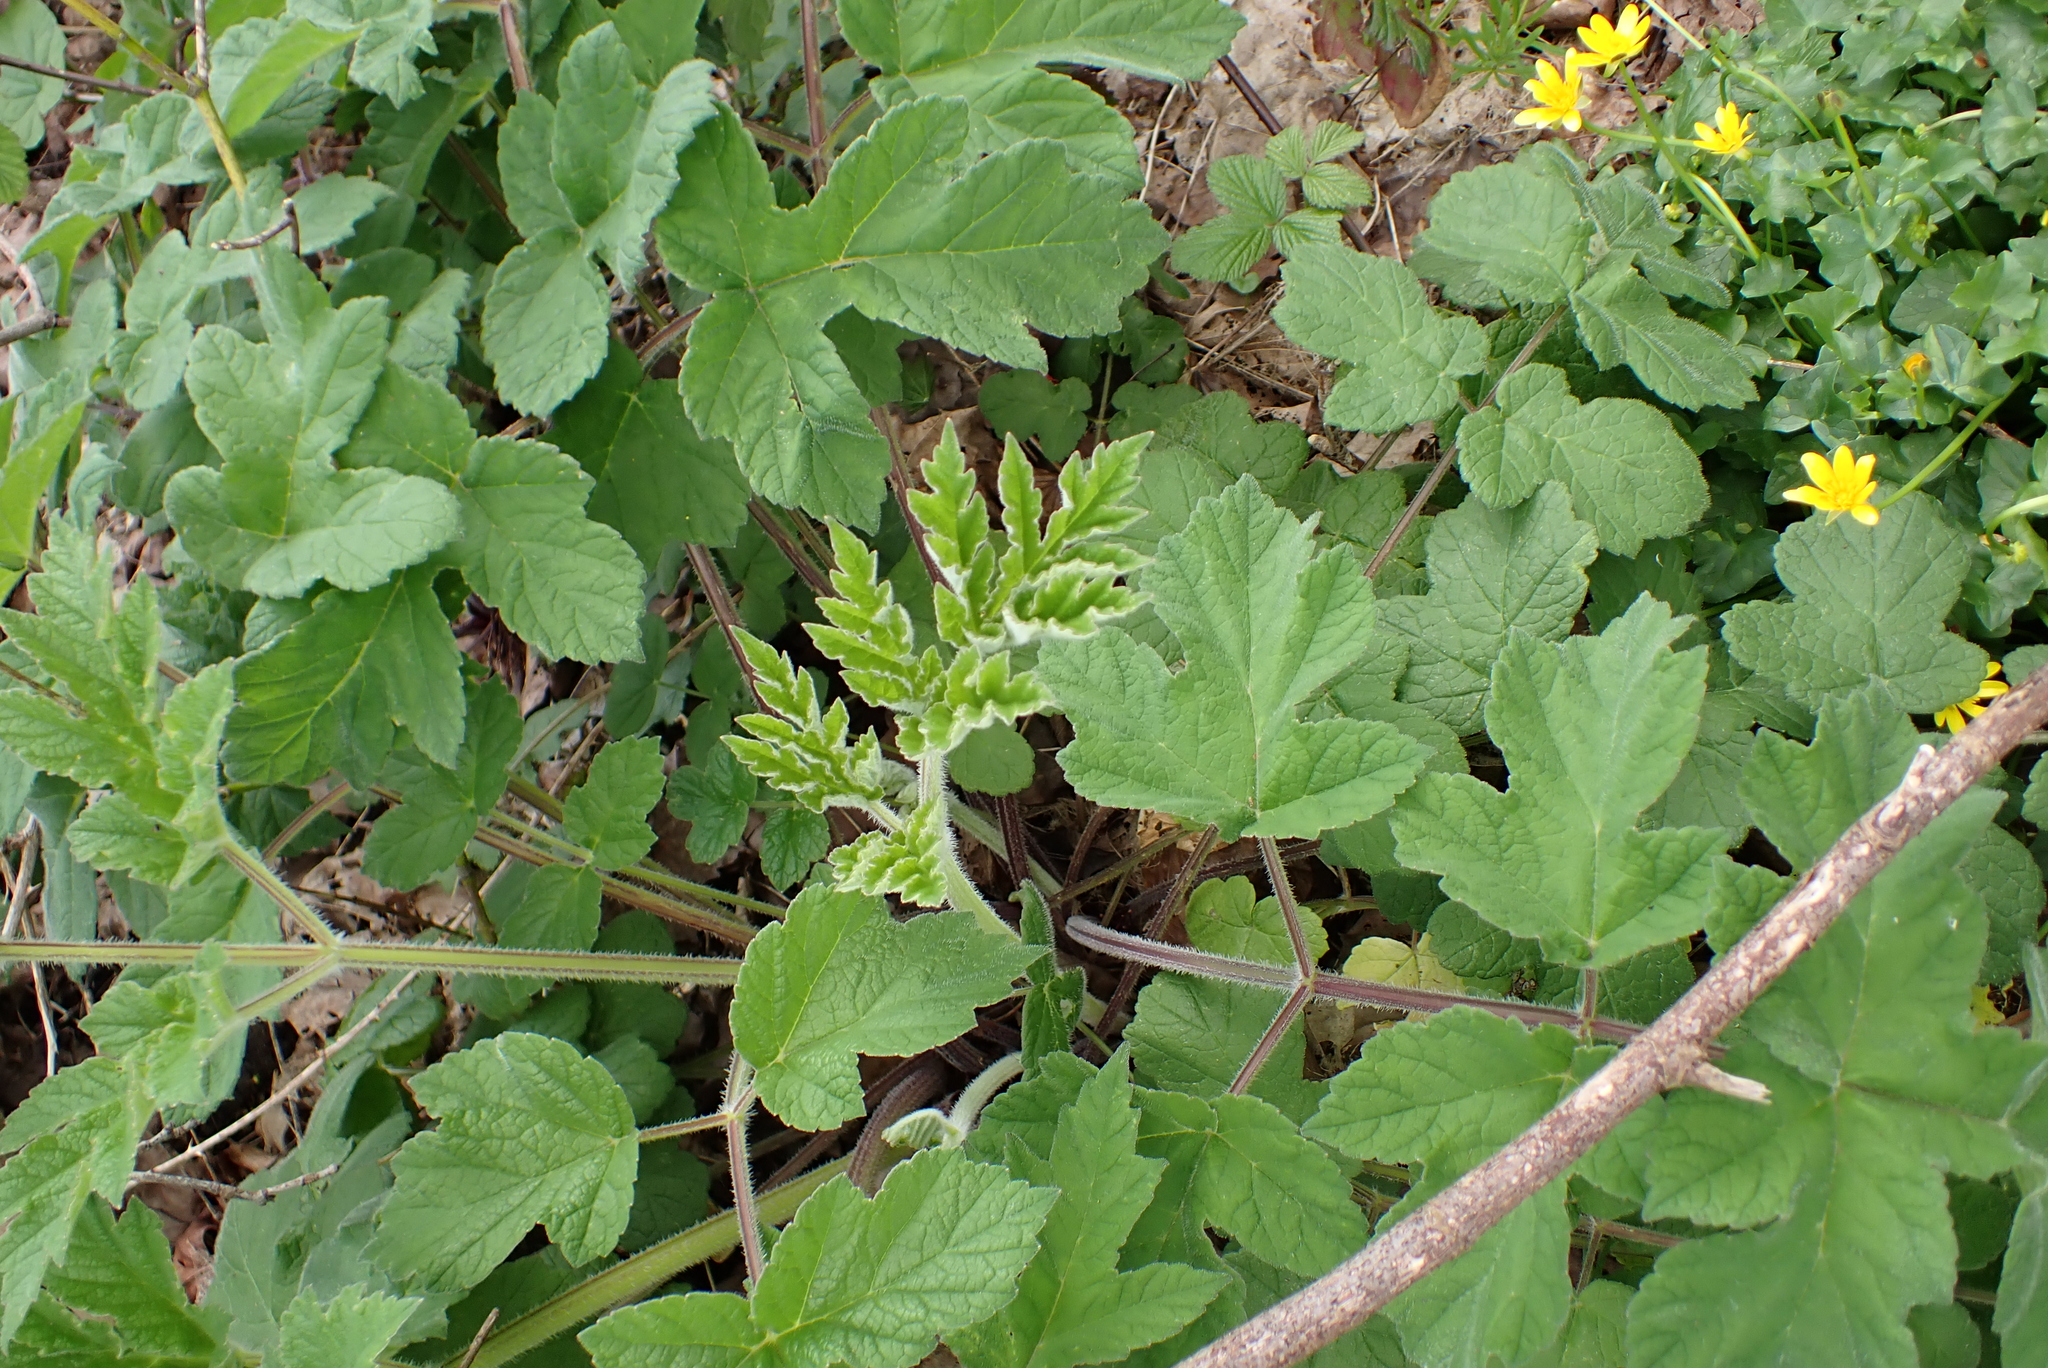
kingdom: Plantae
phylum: Tracheophyta
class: Magnoliopsida
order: Apiales
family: Apiaceae
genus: Heracleum
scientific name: Heracleum sphondylium
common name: Hogweed
